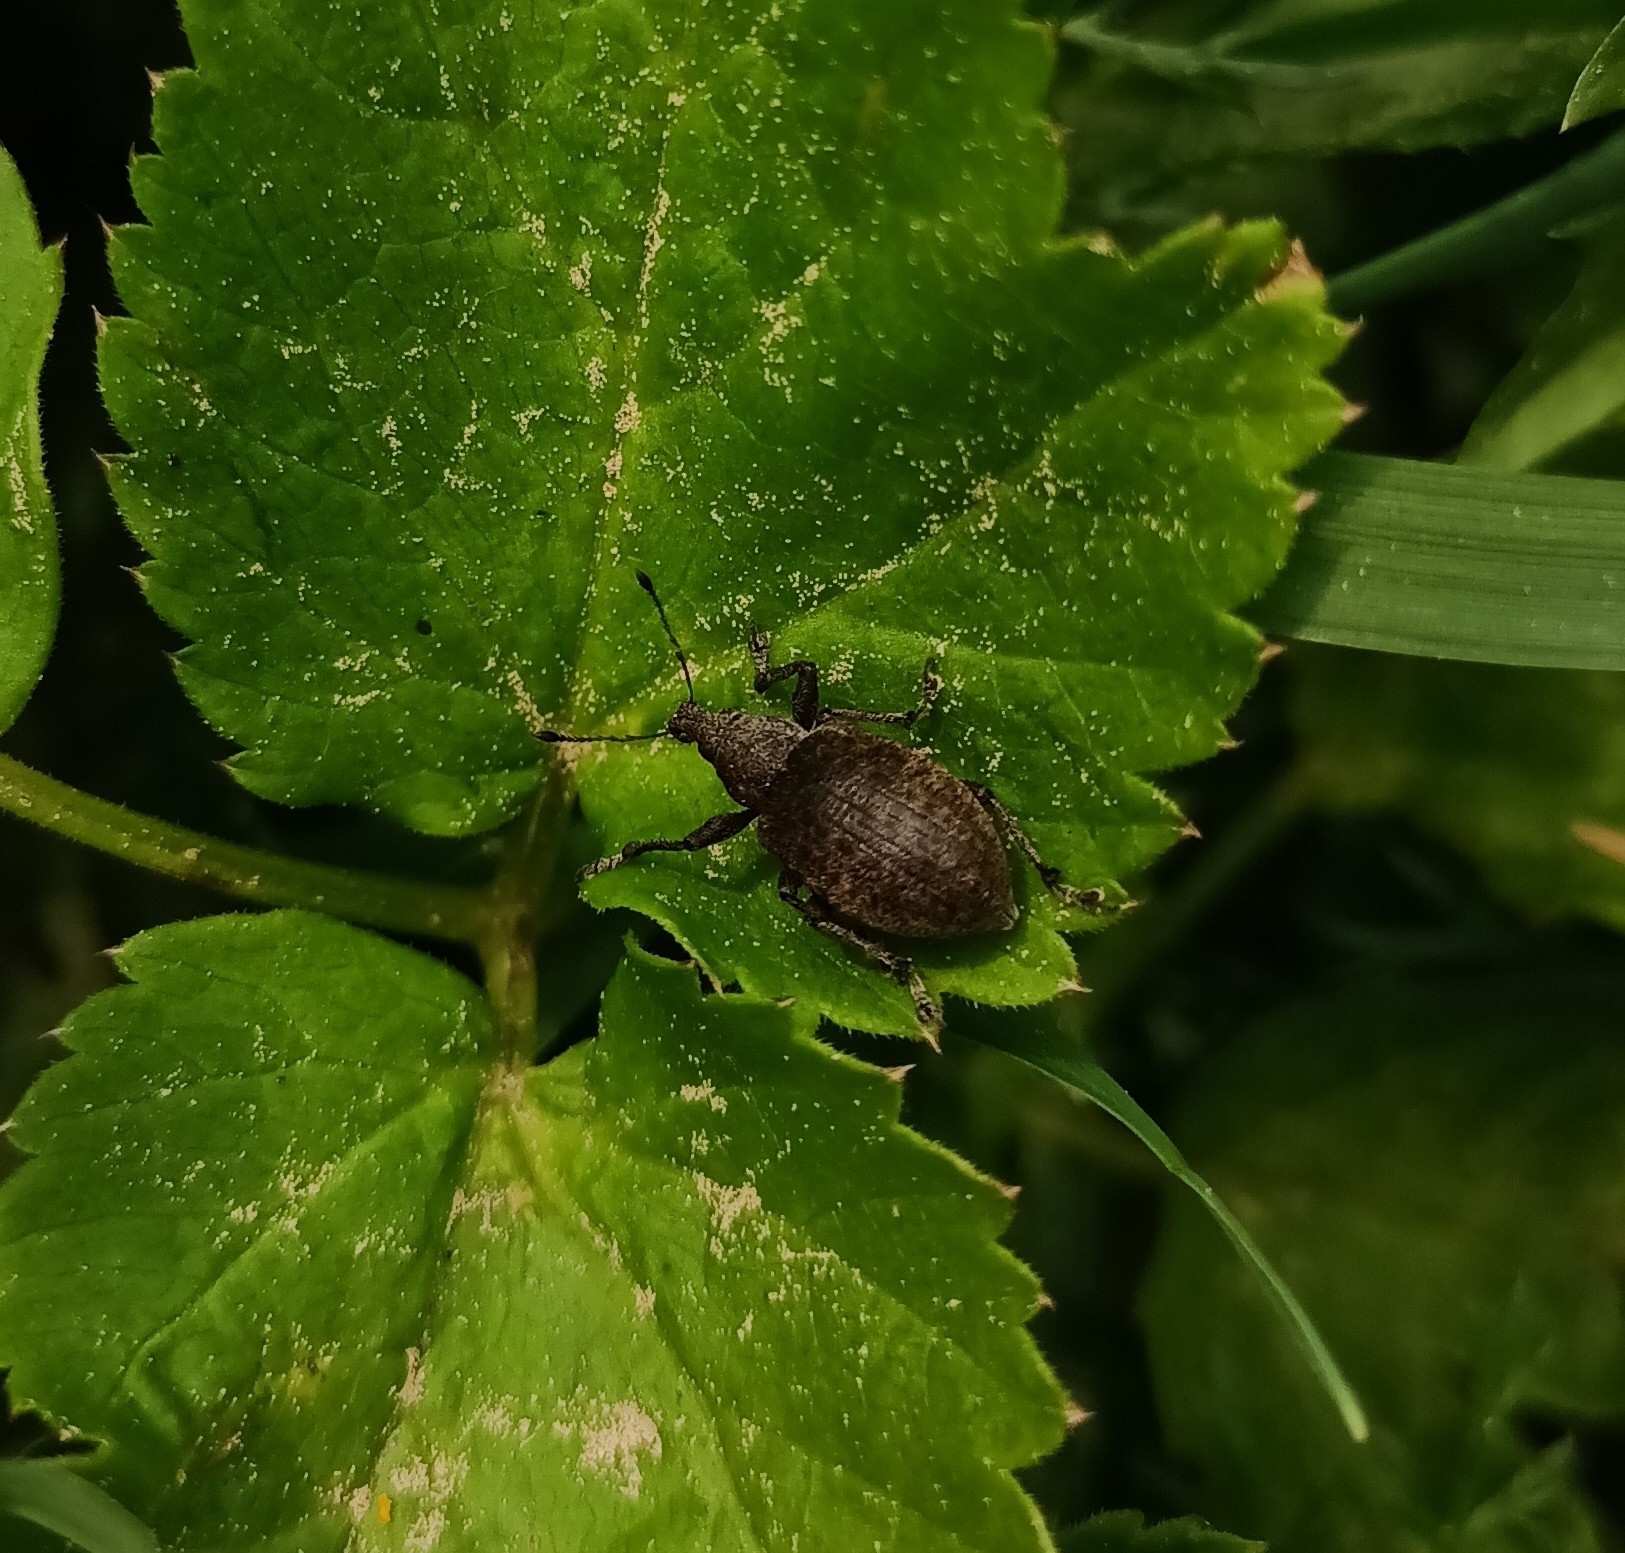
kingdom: Animalia
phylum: Arthropoda
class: Insecta
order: Coleoptera
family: Curculionidae
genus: Liophloeus
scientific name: Liophloeus tessulatus
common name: Weevil
